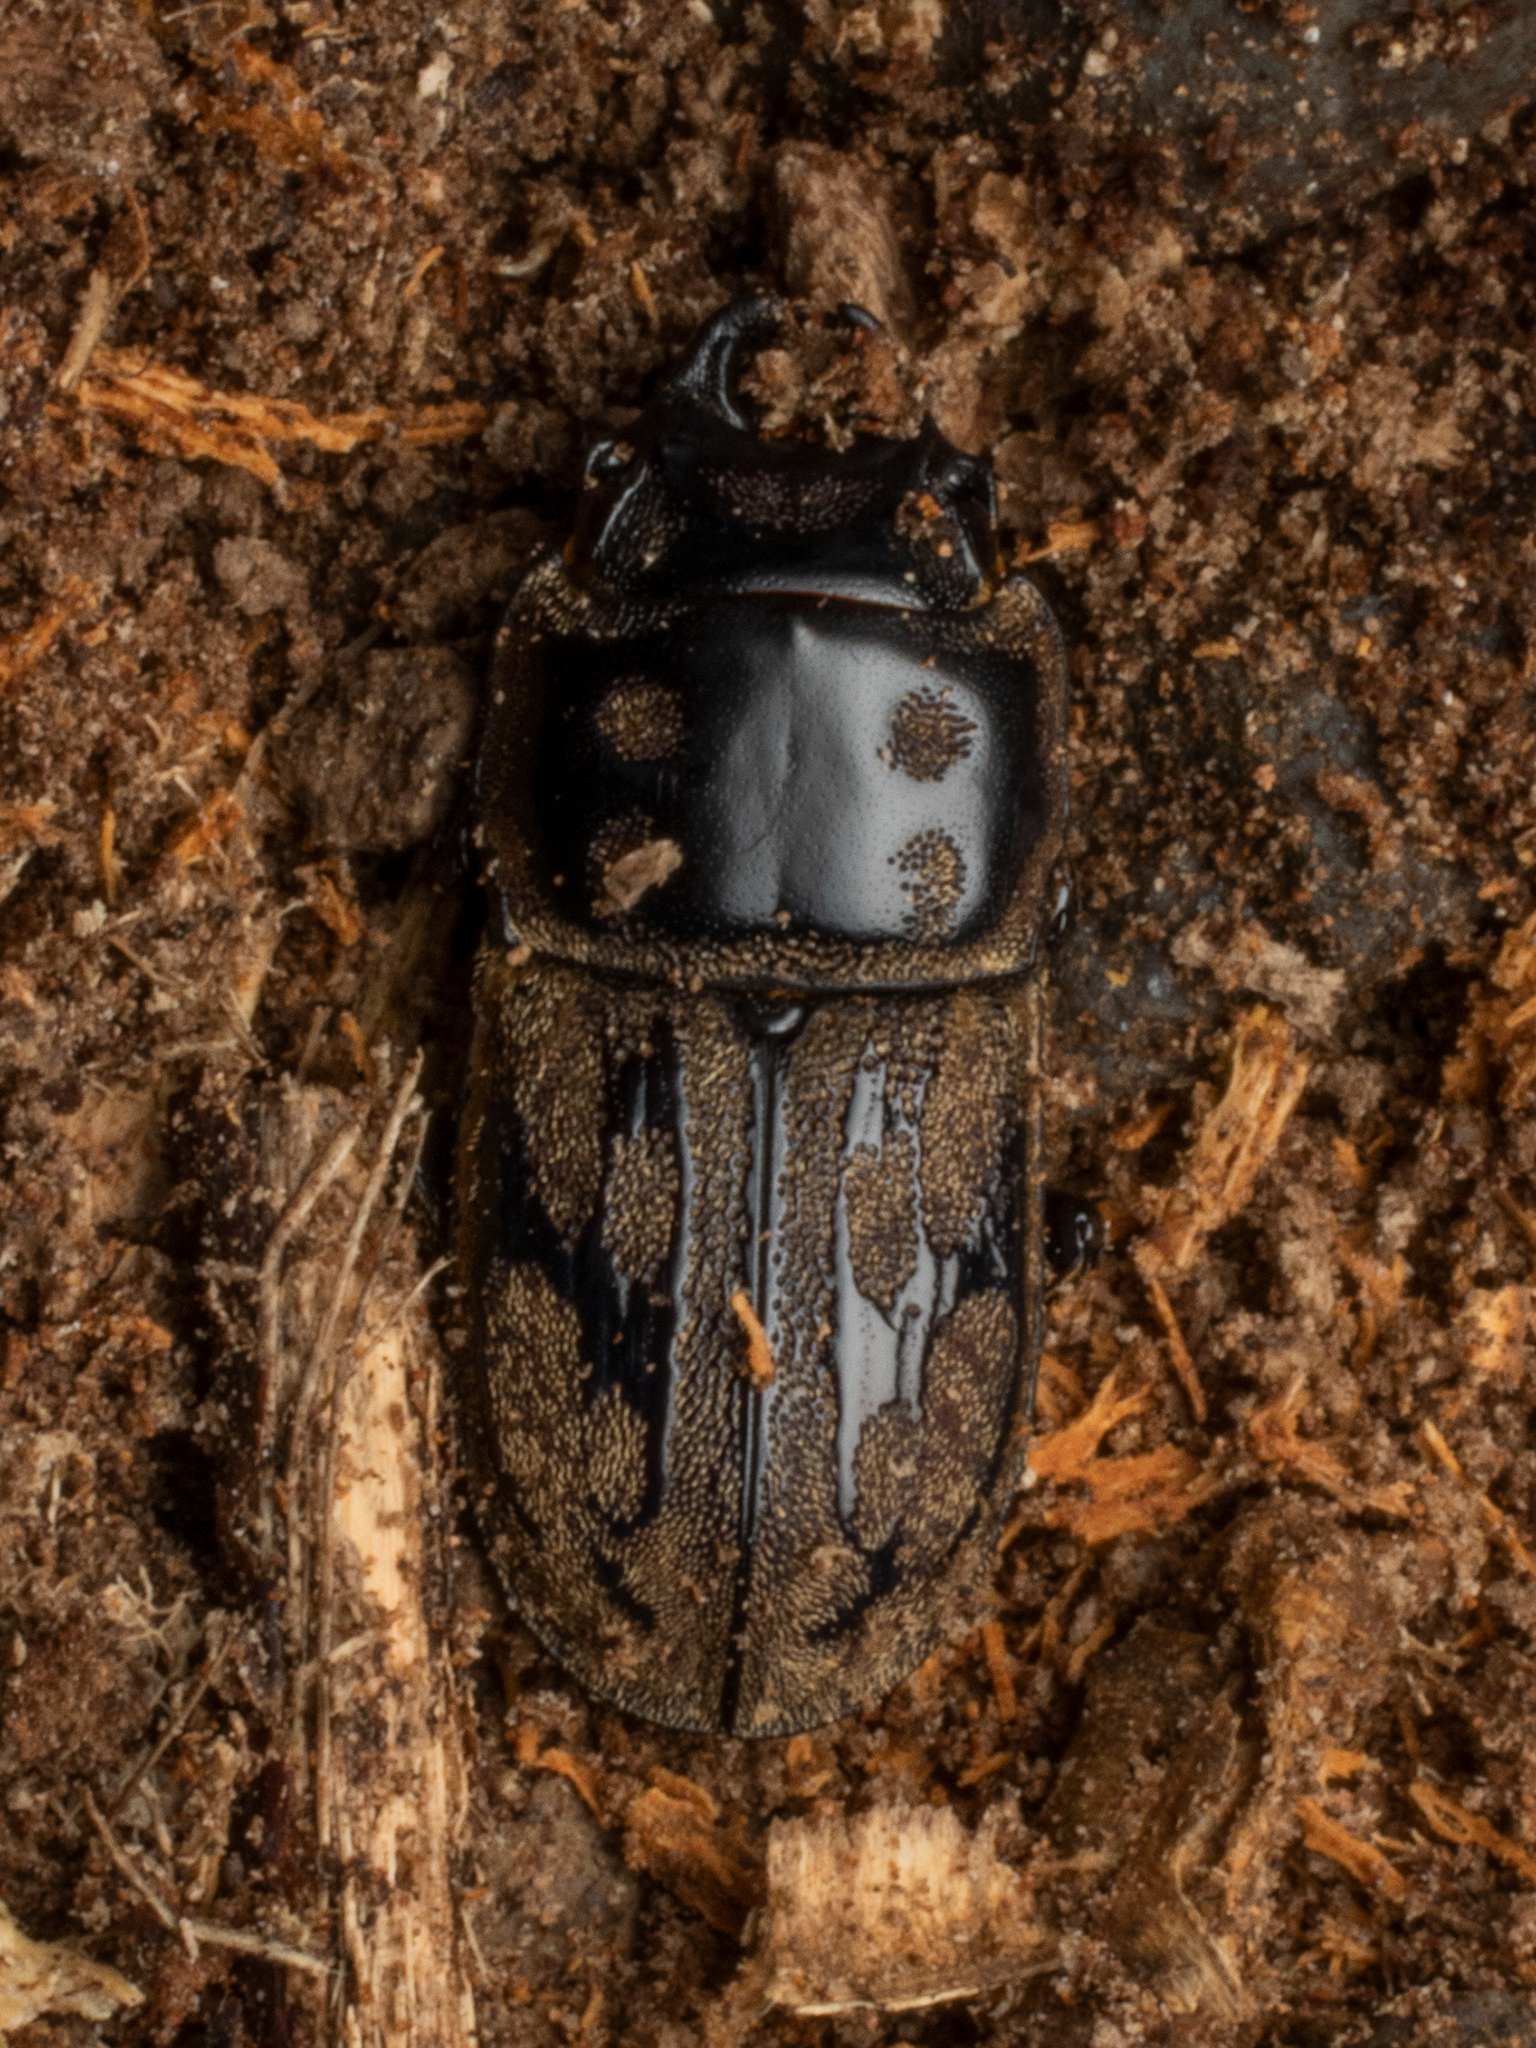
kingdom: Animalia
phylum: Arthropoda
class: Insecta
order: Coleoptera
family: Lucanidae
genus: Paralissotes
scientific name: Paralissotes reticulatus
